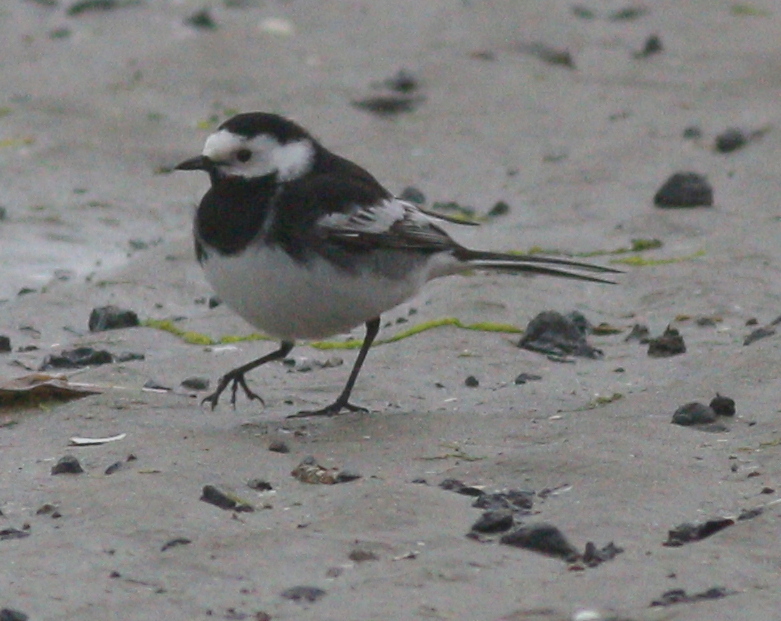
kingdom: Animalia
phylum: Chordata
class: Aves
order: Passeriformes
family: Motacillidae
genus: Motacilla
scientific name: Motacilla alba
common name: White wagtail
